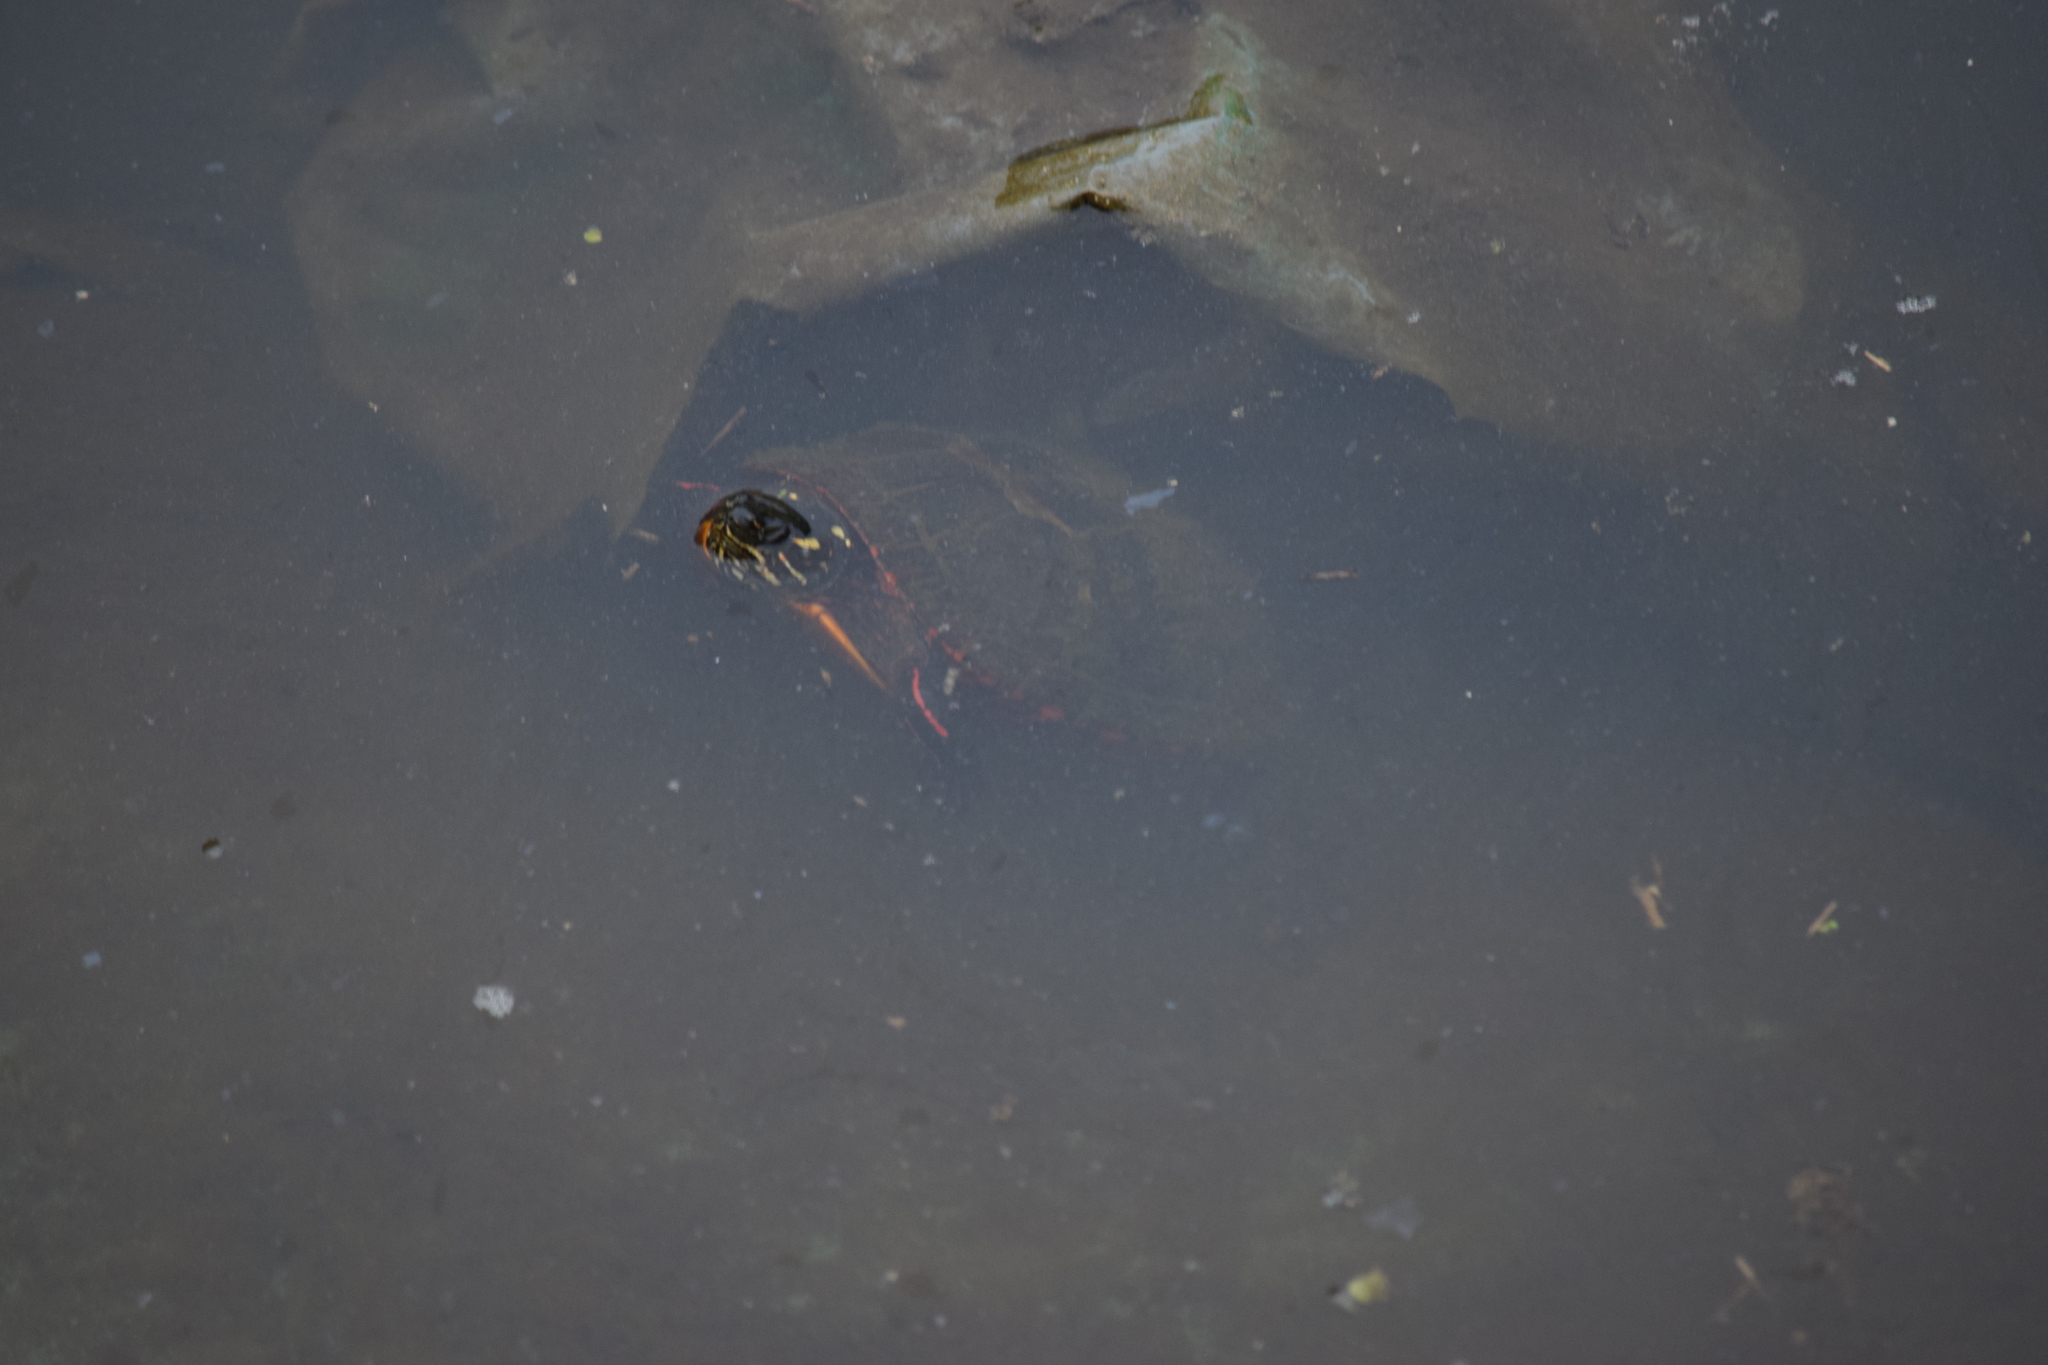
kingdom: Animalia
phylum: Chordata
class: Testudines
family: Emydidae
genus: Chrysemys
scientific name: Chrysemys picta
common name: Painted turtle
